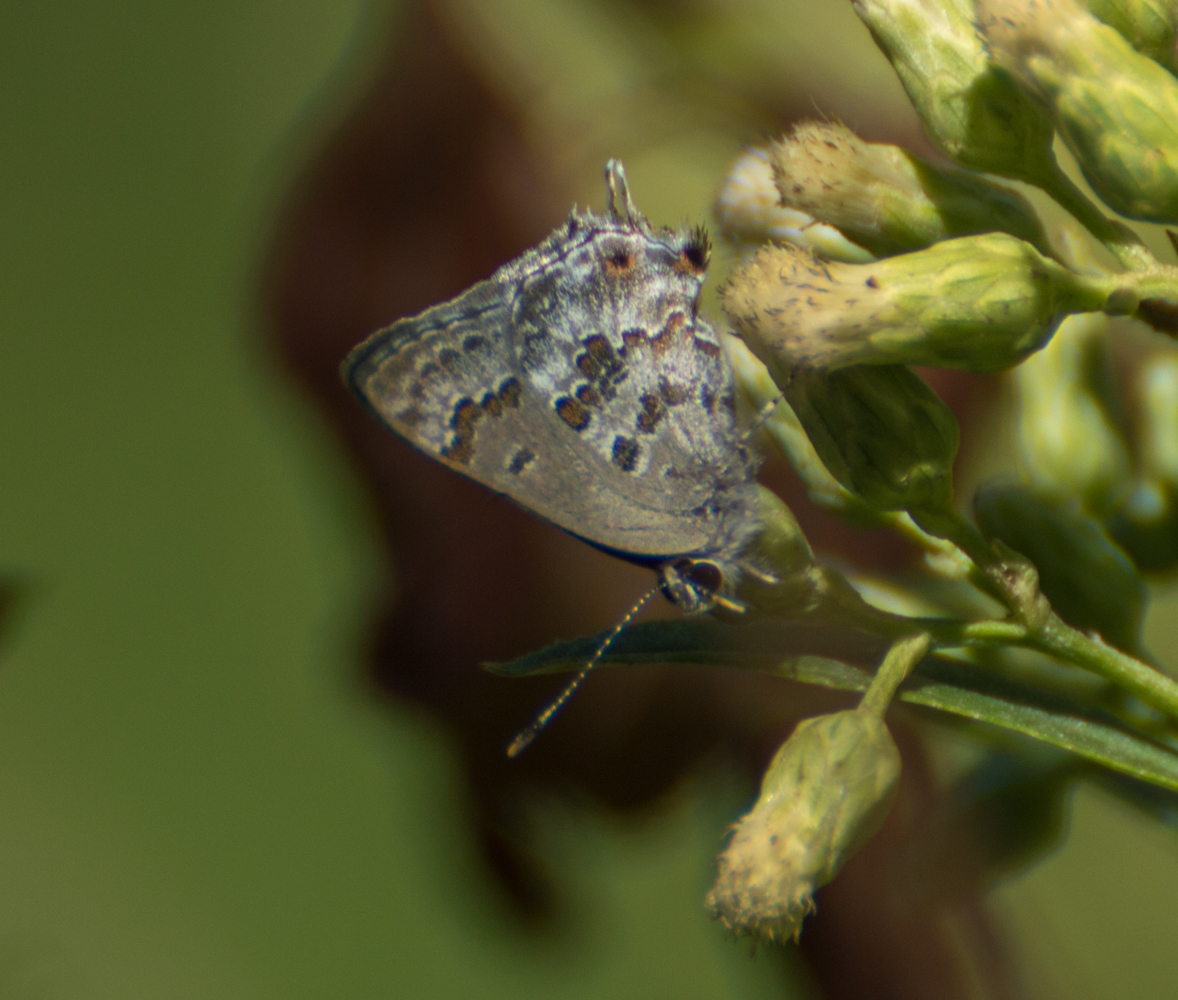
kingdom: Animalia
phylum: Arthropoda
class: Insecta
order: Lepidoptera
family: Lycaenidae
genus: Strymon
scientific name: Strymon lucena
